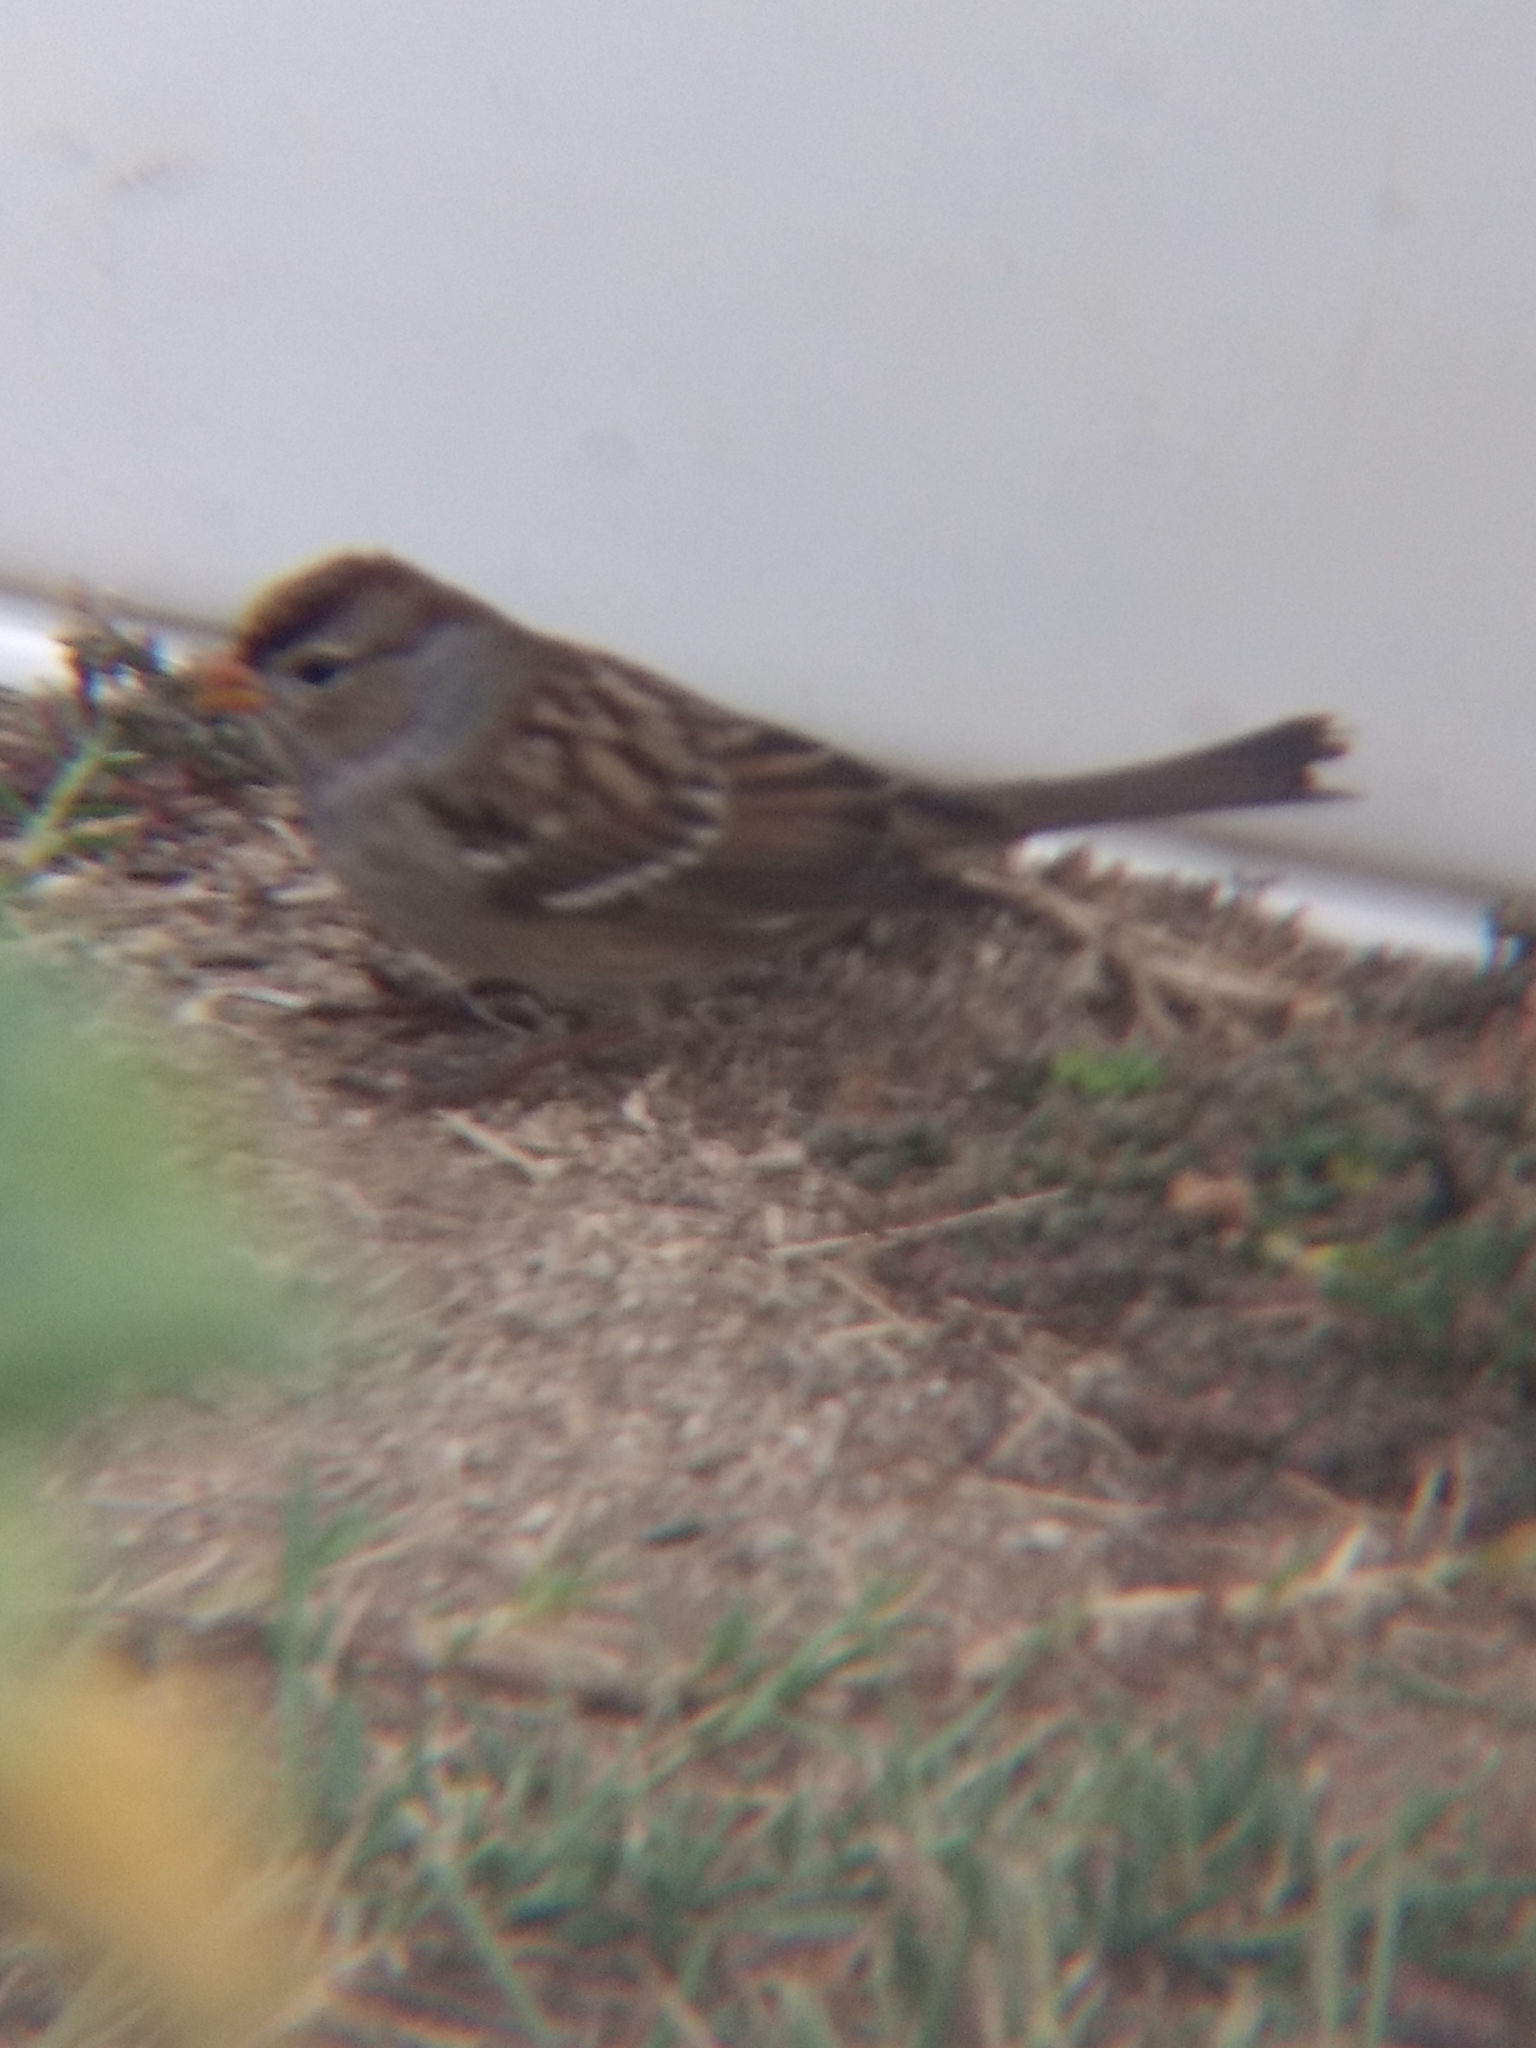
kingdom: Animalia
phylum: Chordata
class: Aves
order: Passeriformes
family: Passerellidae
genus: Zonotrichia
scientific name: Zonotrichia leucophrys
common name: White-crowned sparrow
